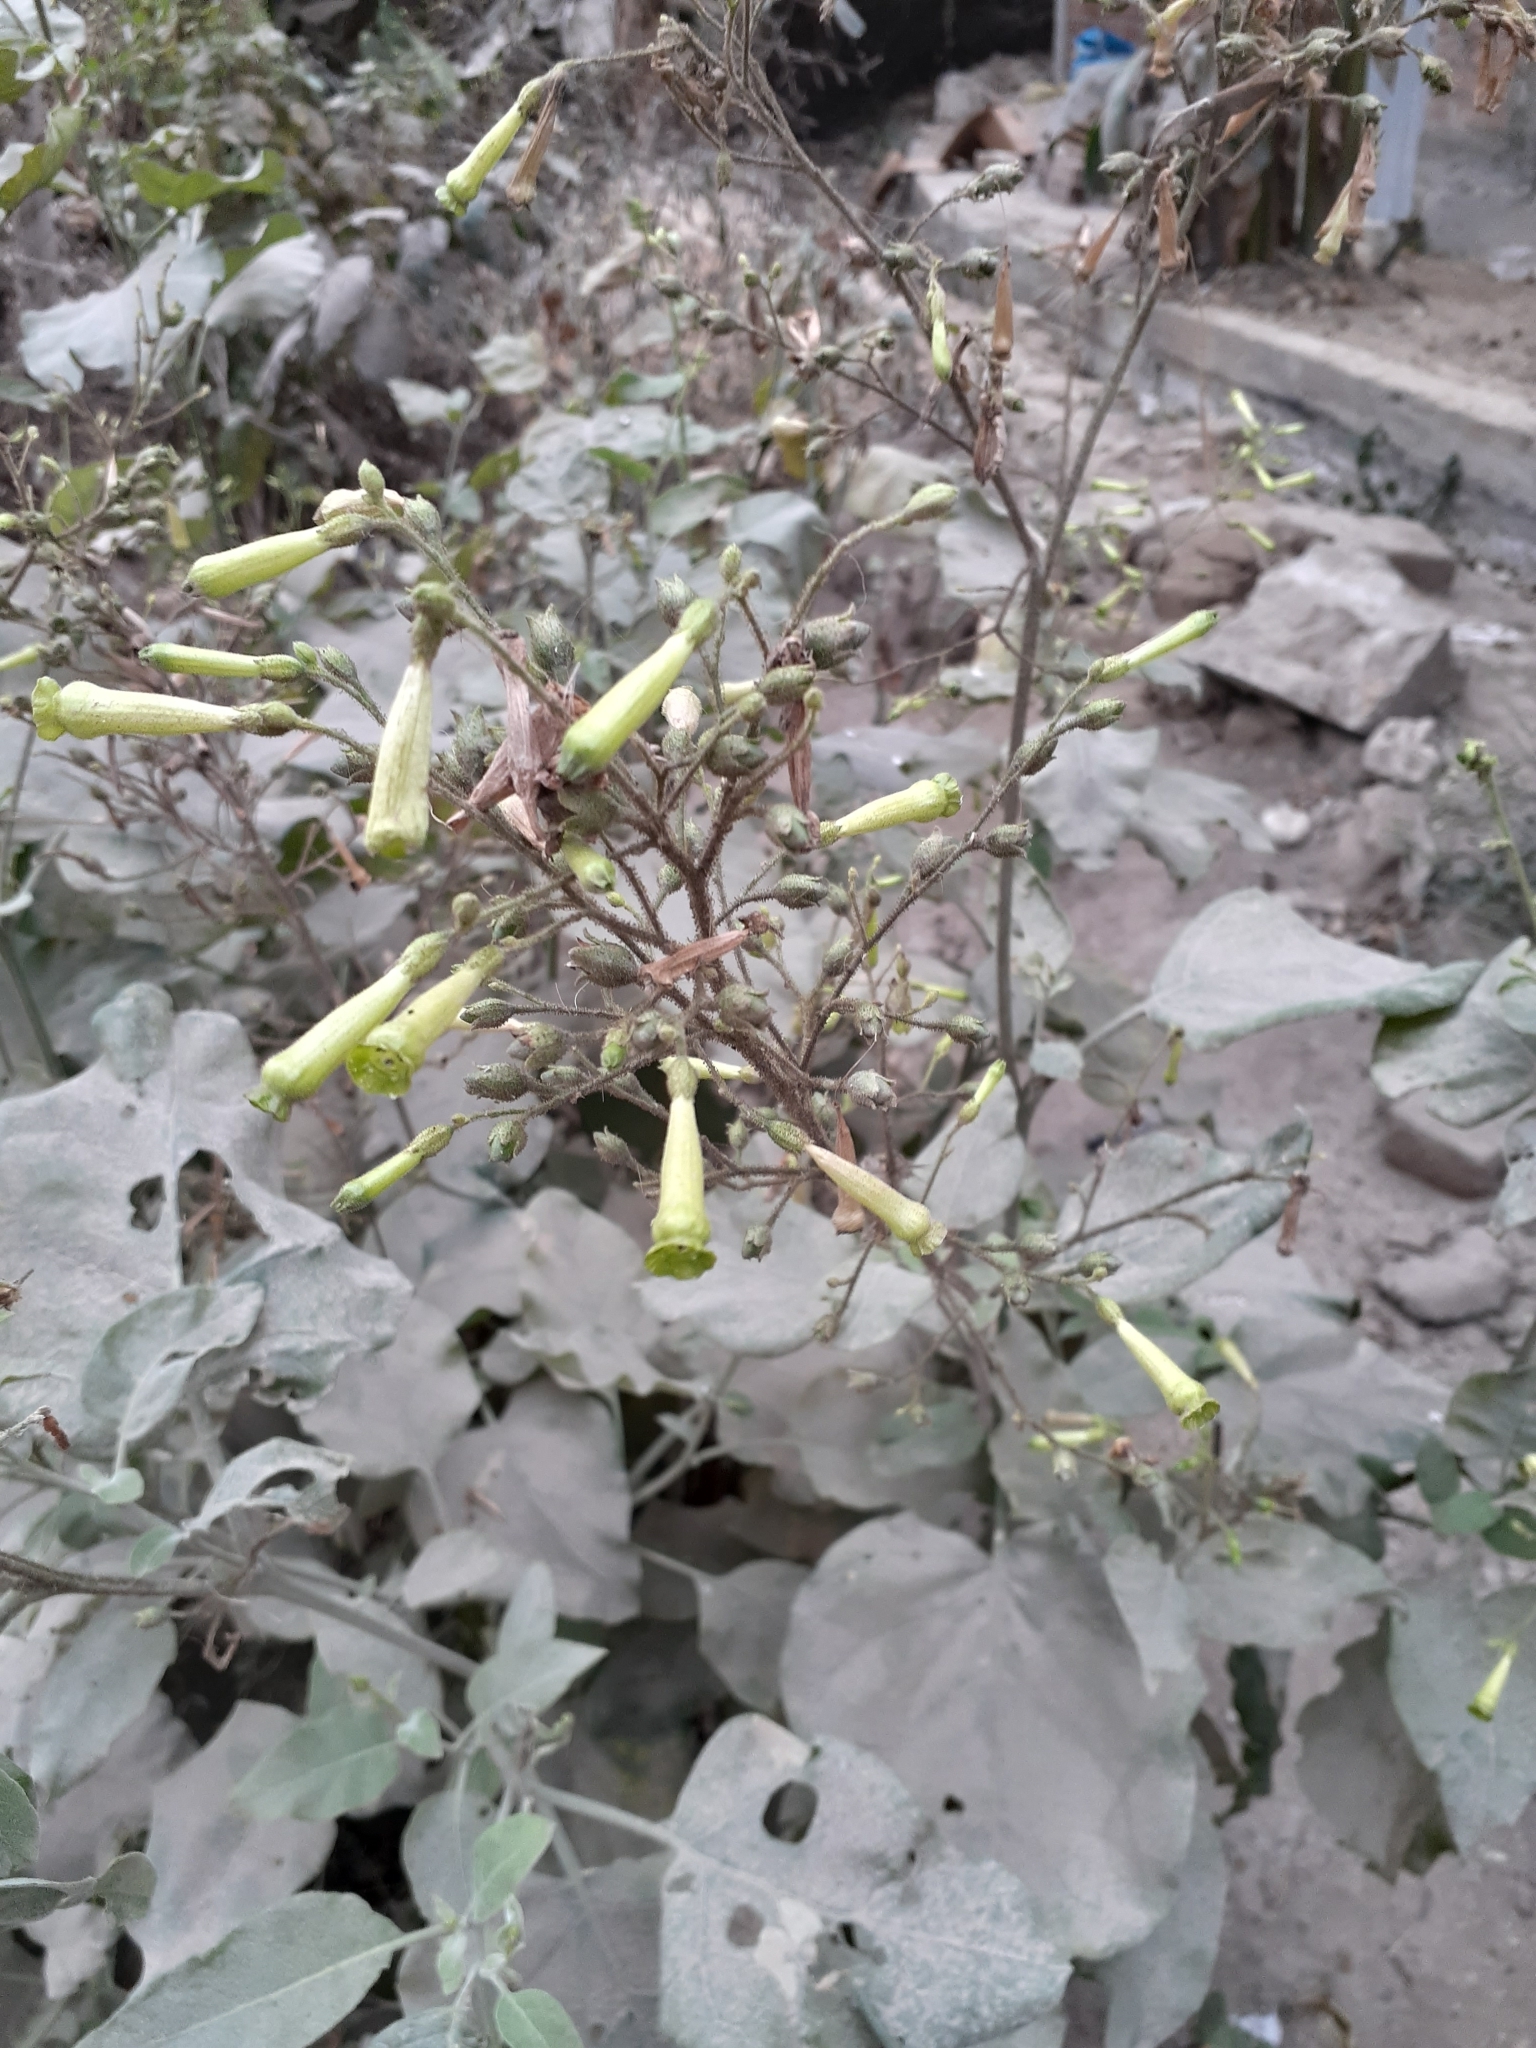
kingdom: Plantae
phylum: Tracheophyta
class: Magnoliopsida
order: Solanales
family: Solanaceae
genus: Nicotiana
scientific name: Nicotiana paniculata
